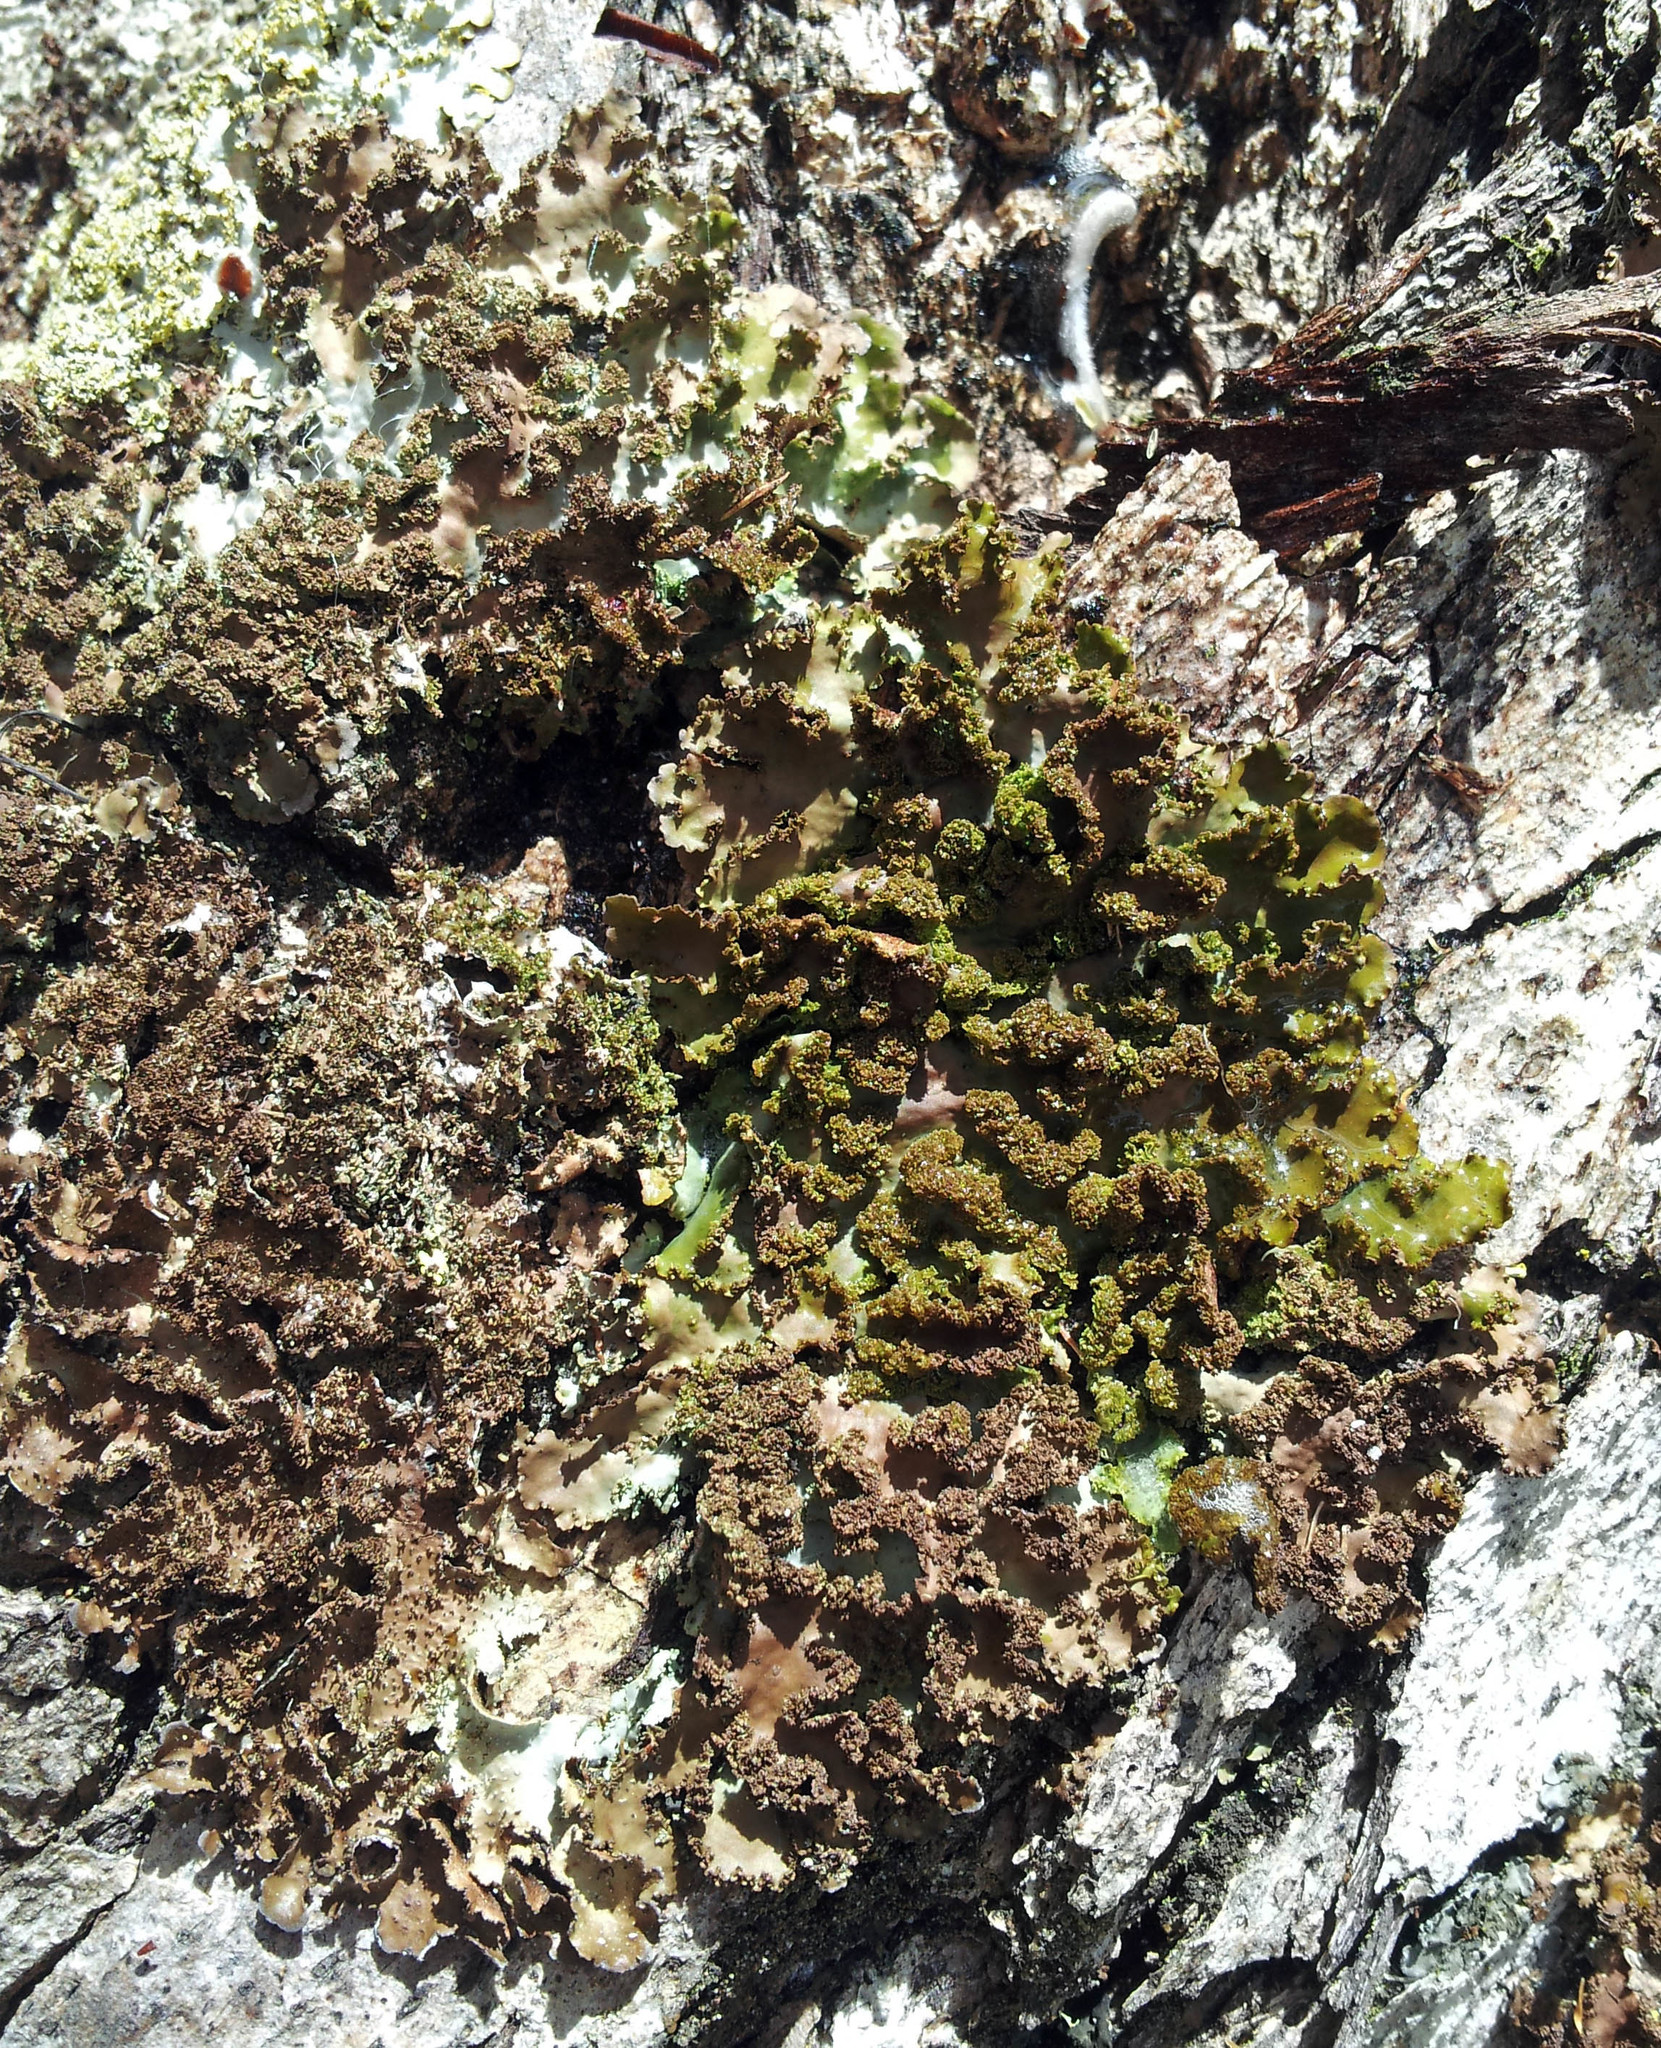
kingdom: Fungi
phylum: Ascomycota
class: Lecanoromycetes
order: Peltigerales
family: Lobariaceae
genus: Sticta
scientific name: Sticta squamata
